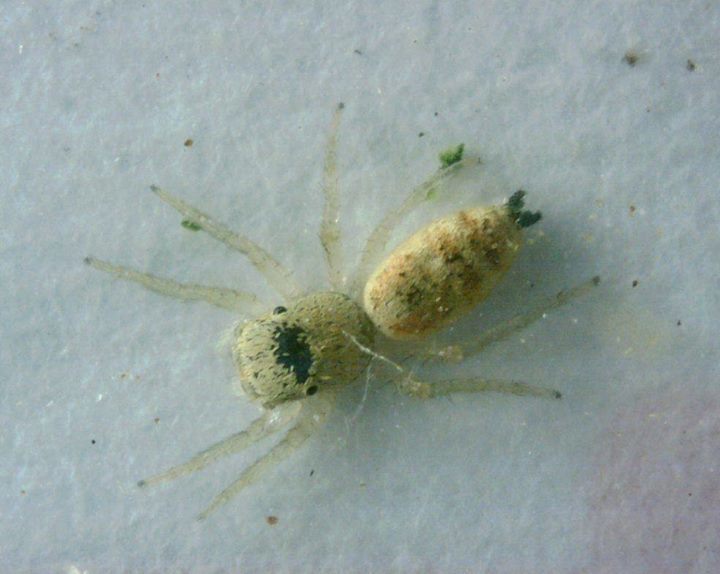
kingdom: Animalia
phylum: Arthropoda
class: Arachnida
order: Araneae
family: Salticidae
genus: Cosmophasis
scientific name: Cosmophasis lami
